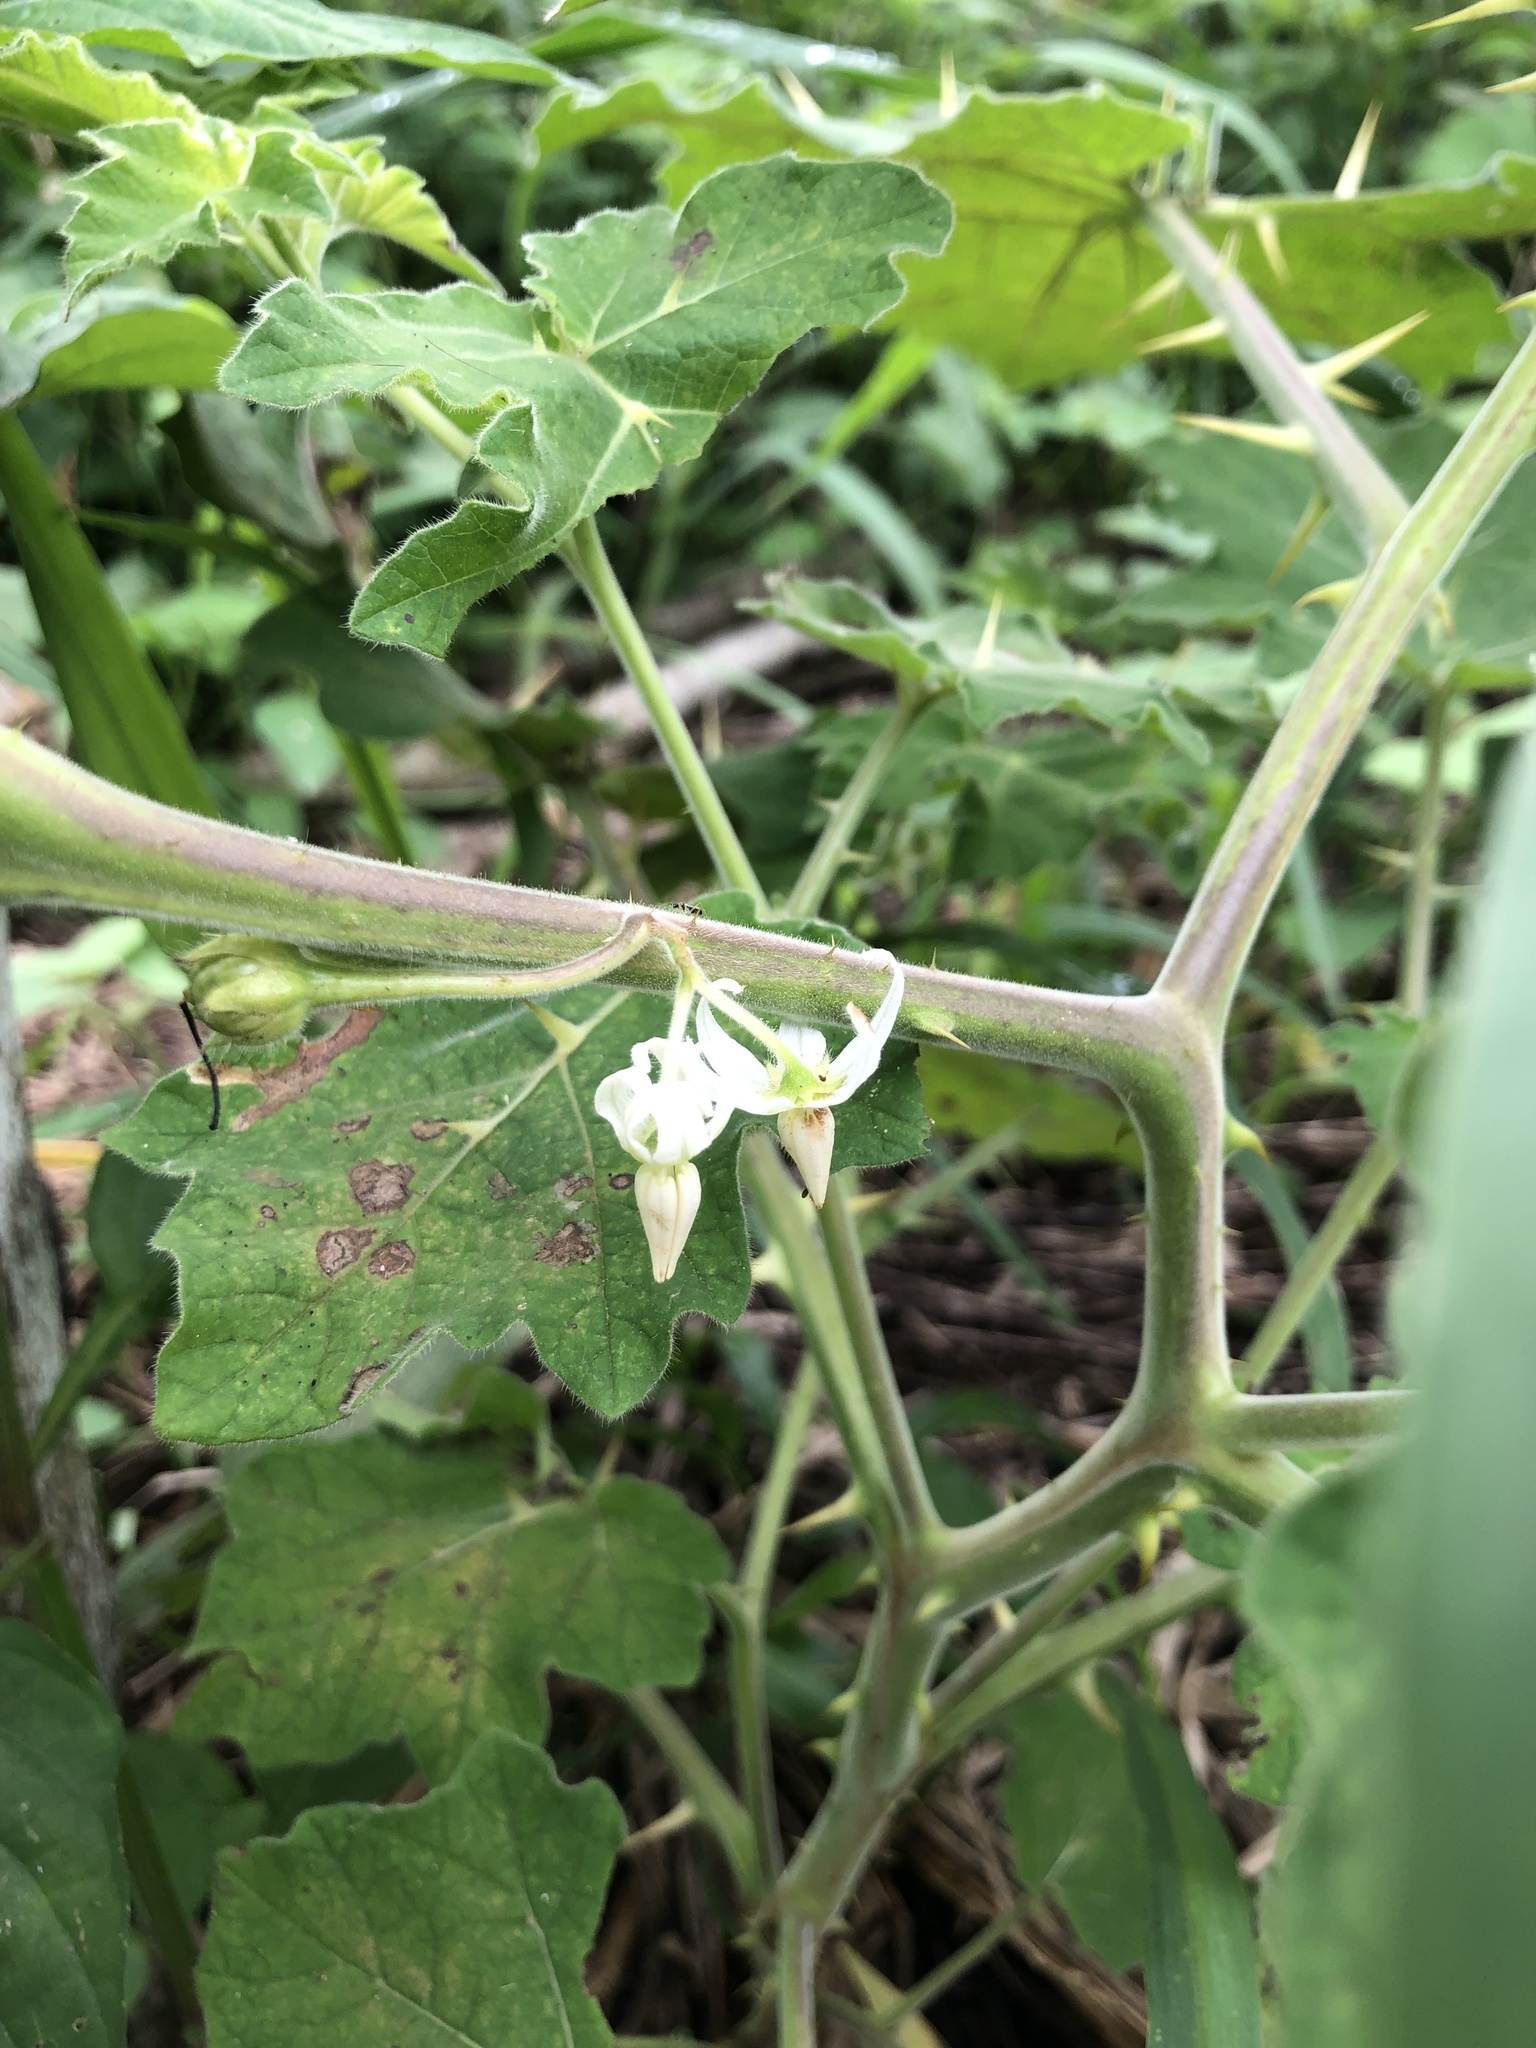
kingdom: Plantae
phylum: Tracheophyta
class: Magnoliopsida
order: Solanales
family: Solanaceae
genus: Solanum
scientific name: Solanum viarum
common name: Tropical soda apple
